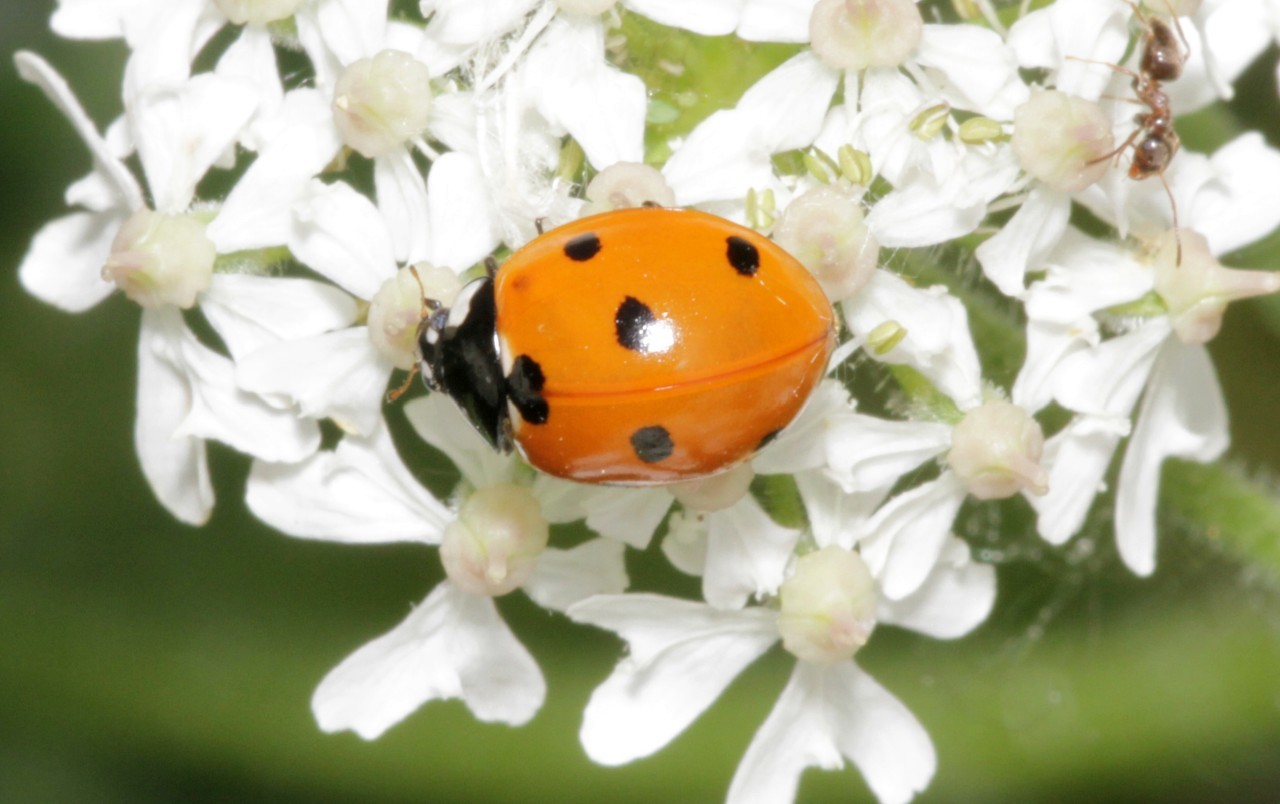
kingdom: Animalia
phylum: Arthropoda
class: Insecta
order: Coleoptera
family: Coccinellidae
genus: Coccinella
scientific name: Coccinella septempunctata
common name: Sevenspotted lady beetle
